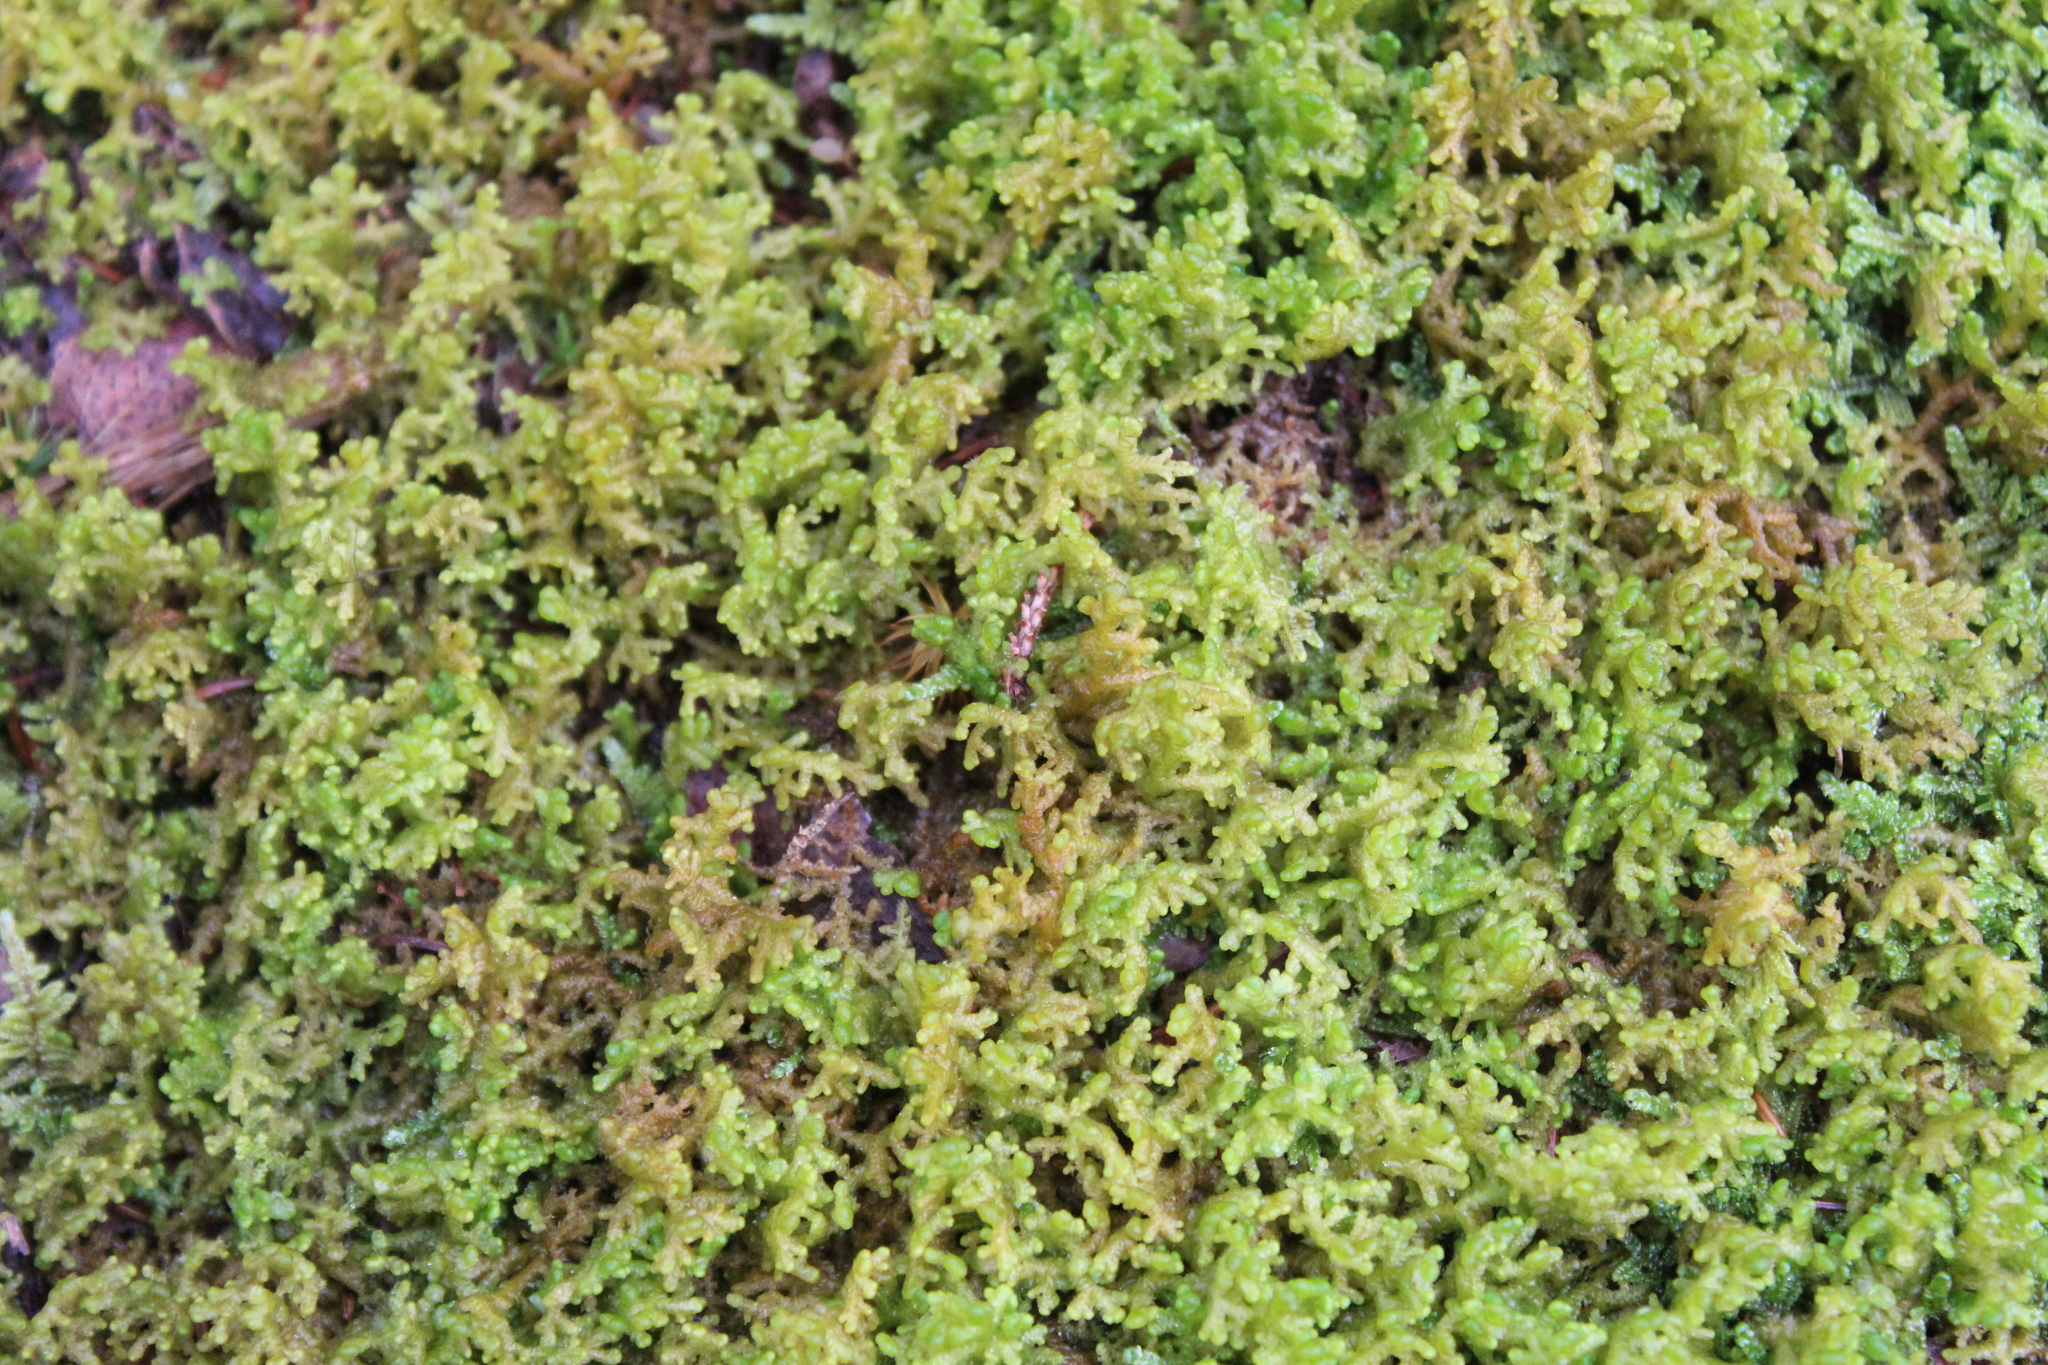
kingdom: Plantae
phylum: Marchantiophyta
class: Jungermanniopsida
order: Ptilidiales
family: Ptilidiaceae
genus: Ptilidium
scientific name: Ptilidium ciliare
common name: Ciliate fringewort
